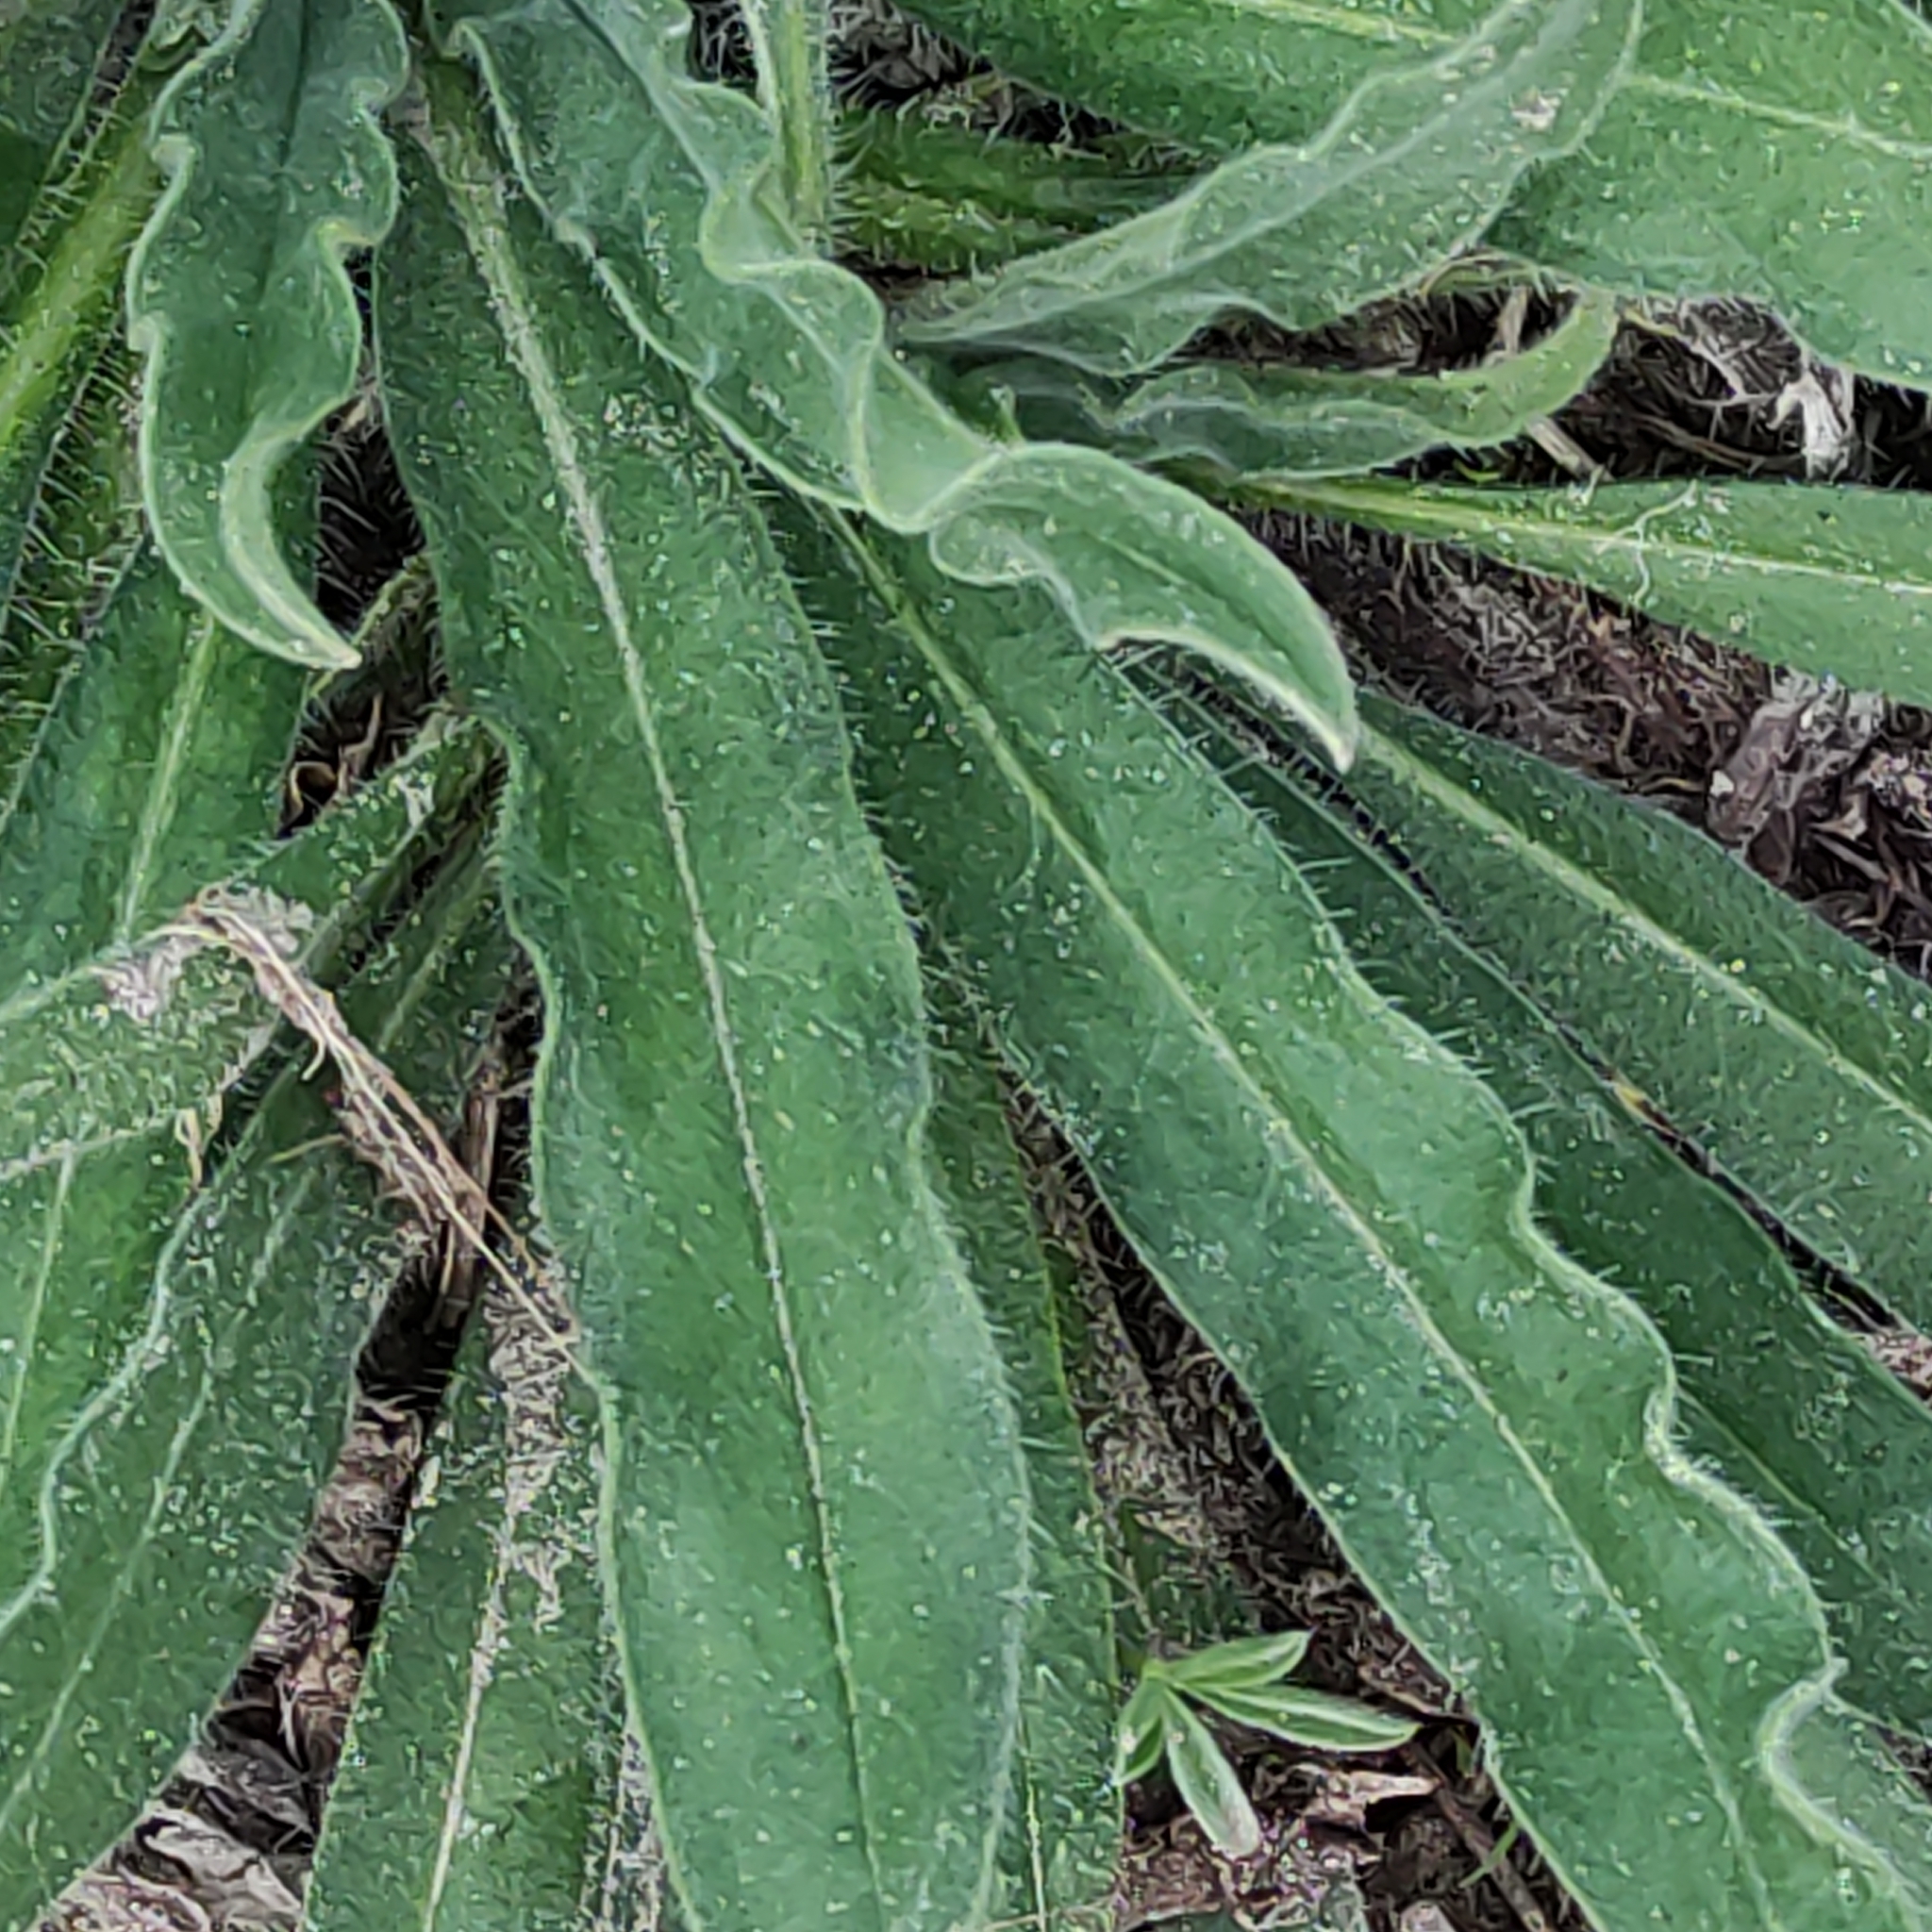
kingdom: Plantae
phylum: Tracheophyta
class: Magnoliopsida
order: Boraginales
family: Boraginaceae
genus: Echium
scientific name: Echium vulgare
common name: Common viper's bugloss
